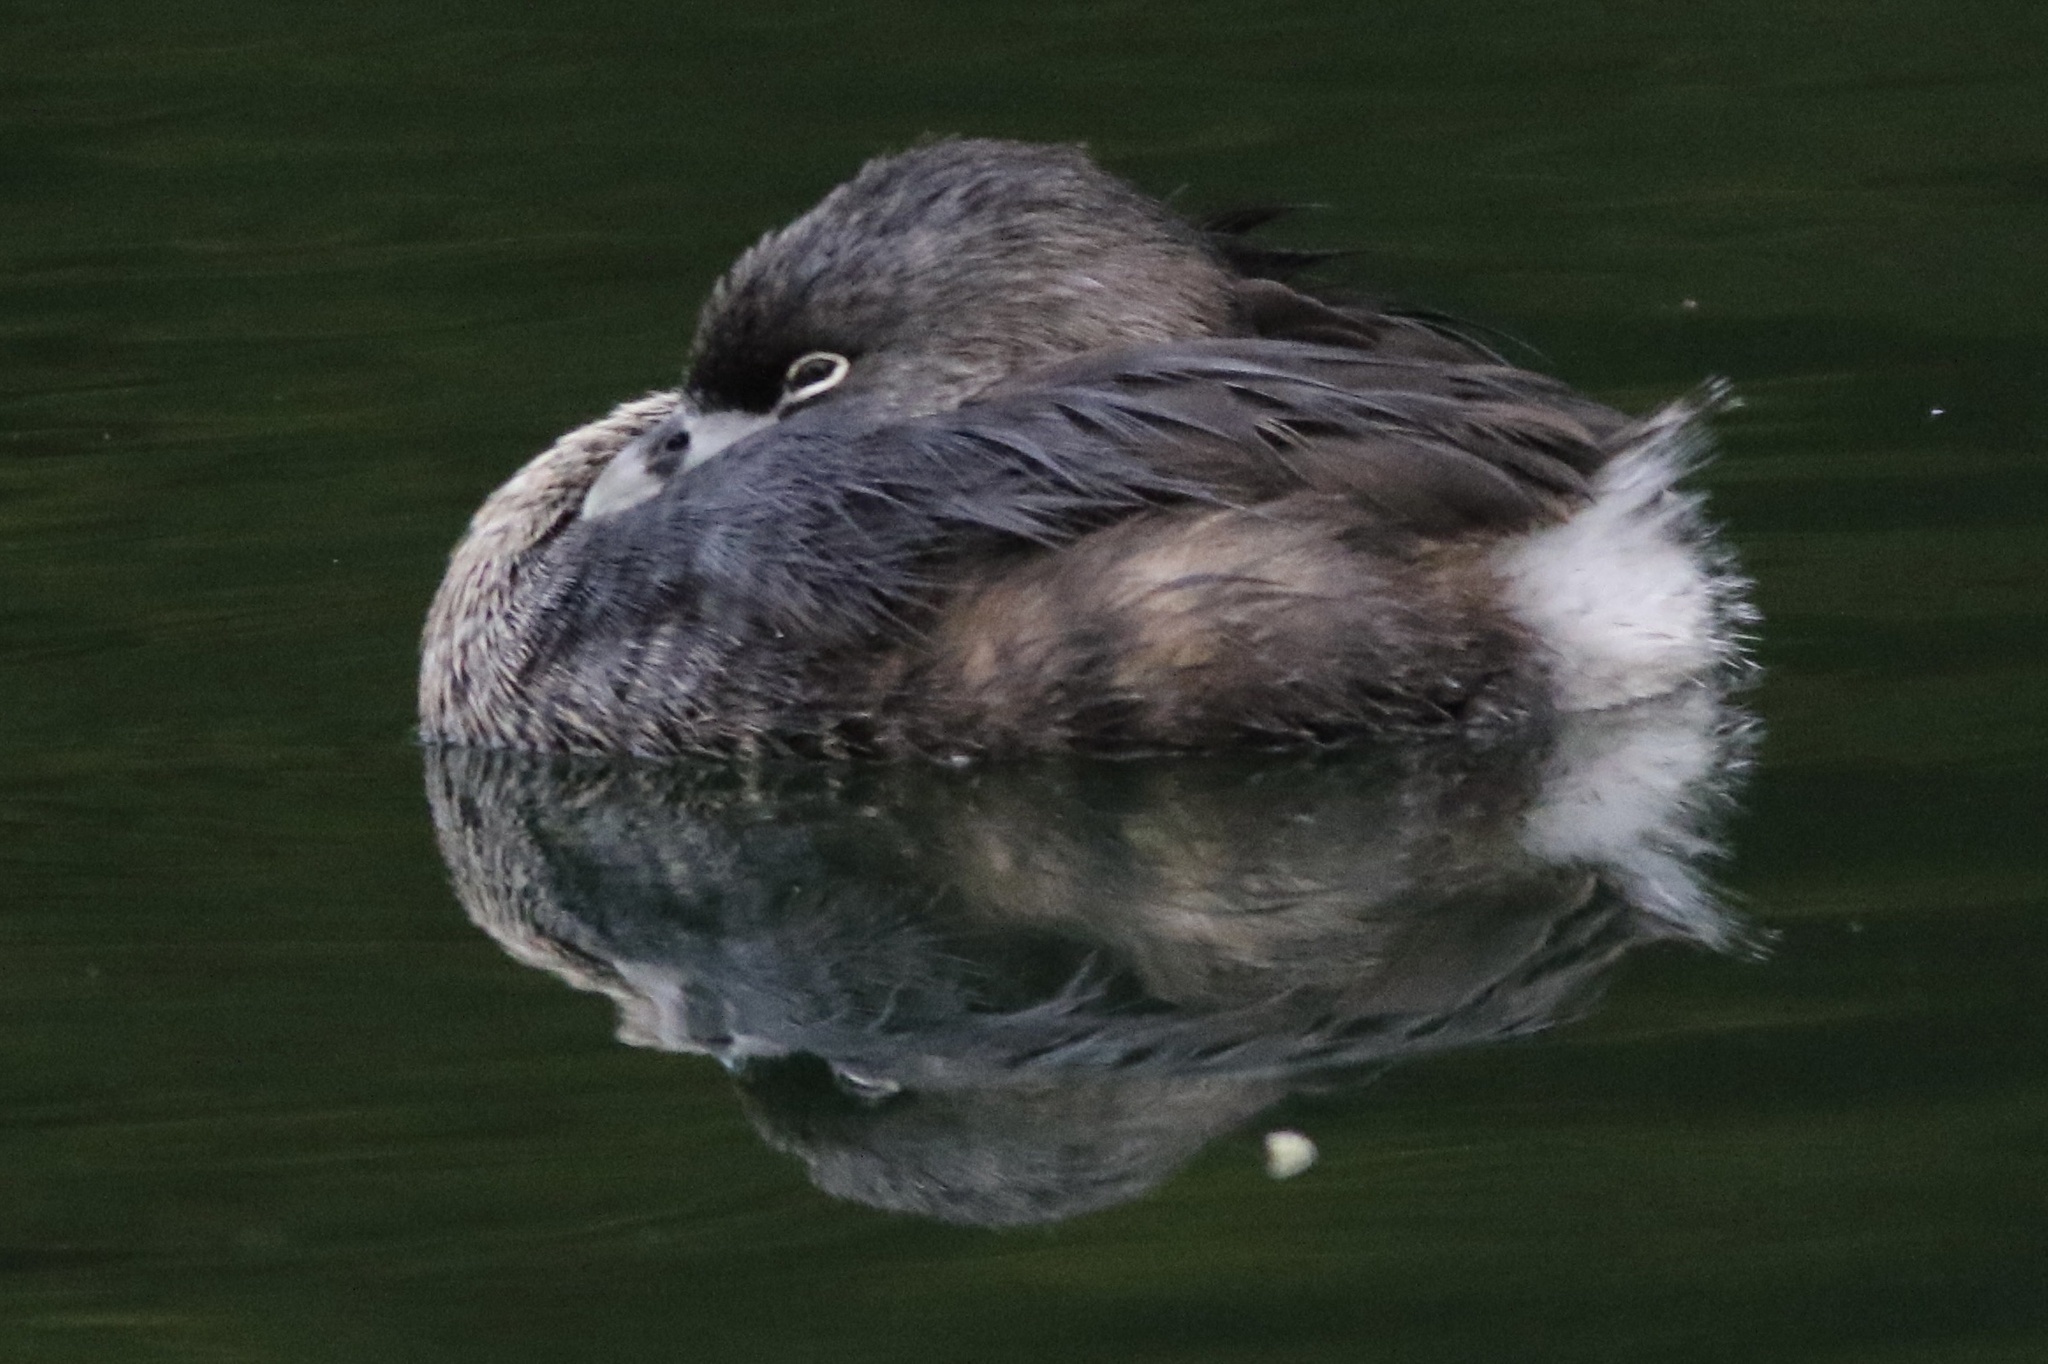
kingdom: Animalia
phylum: Chordata
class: Aves
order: Podicipediformes
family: Podicipedidae
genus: Podilymbus
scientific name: Podilymbus podiceps
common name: Pied-billed grebe
